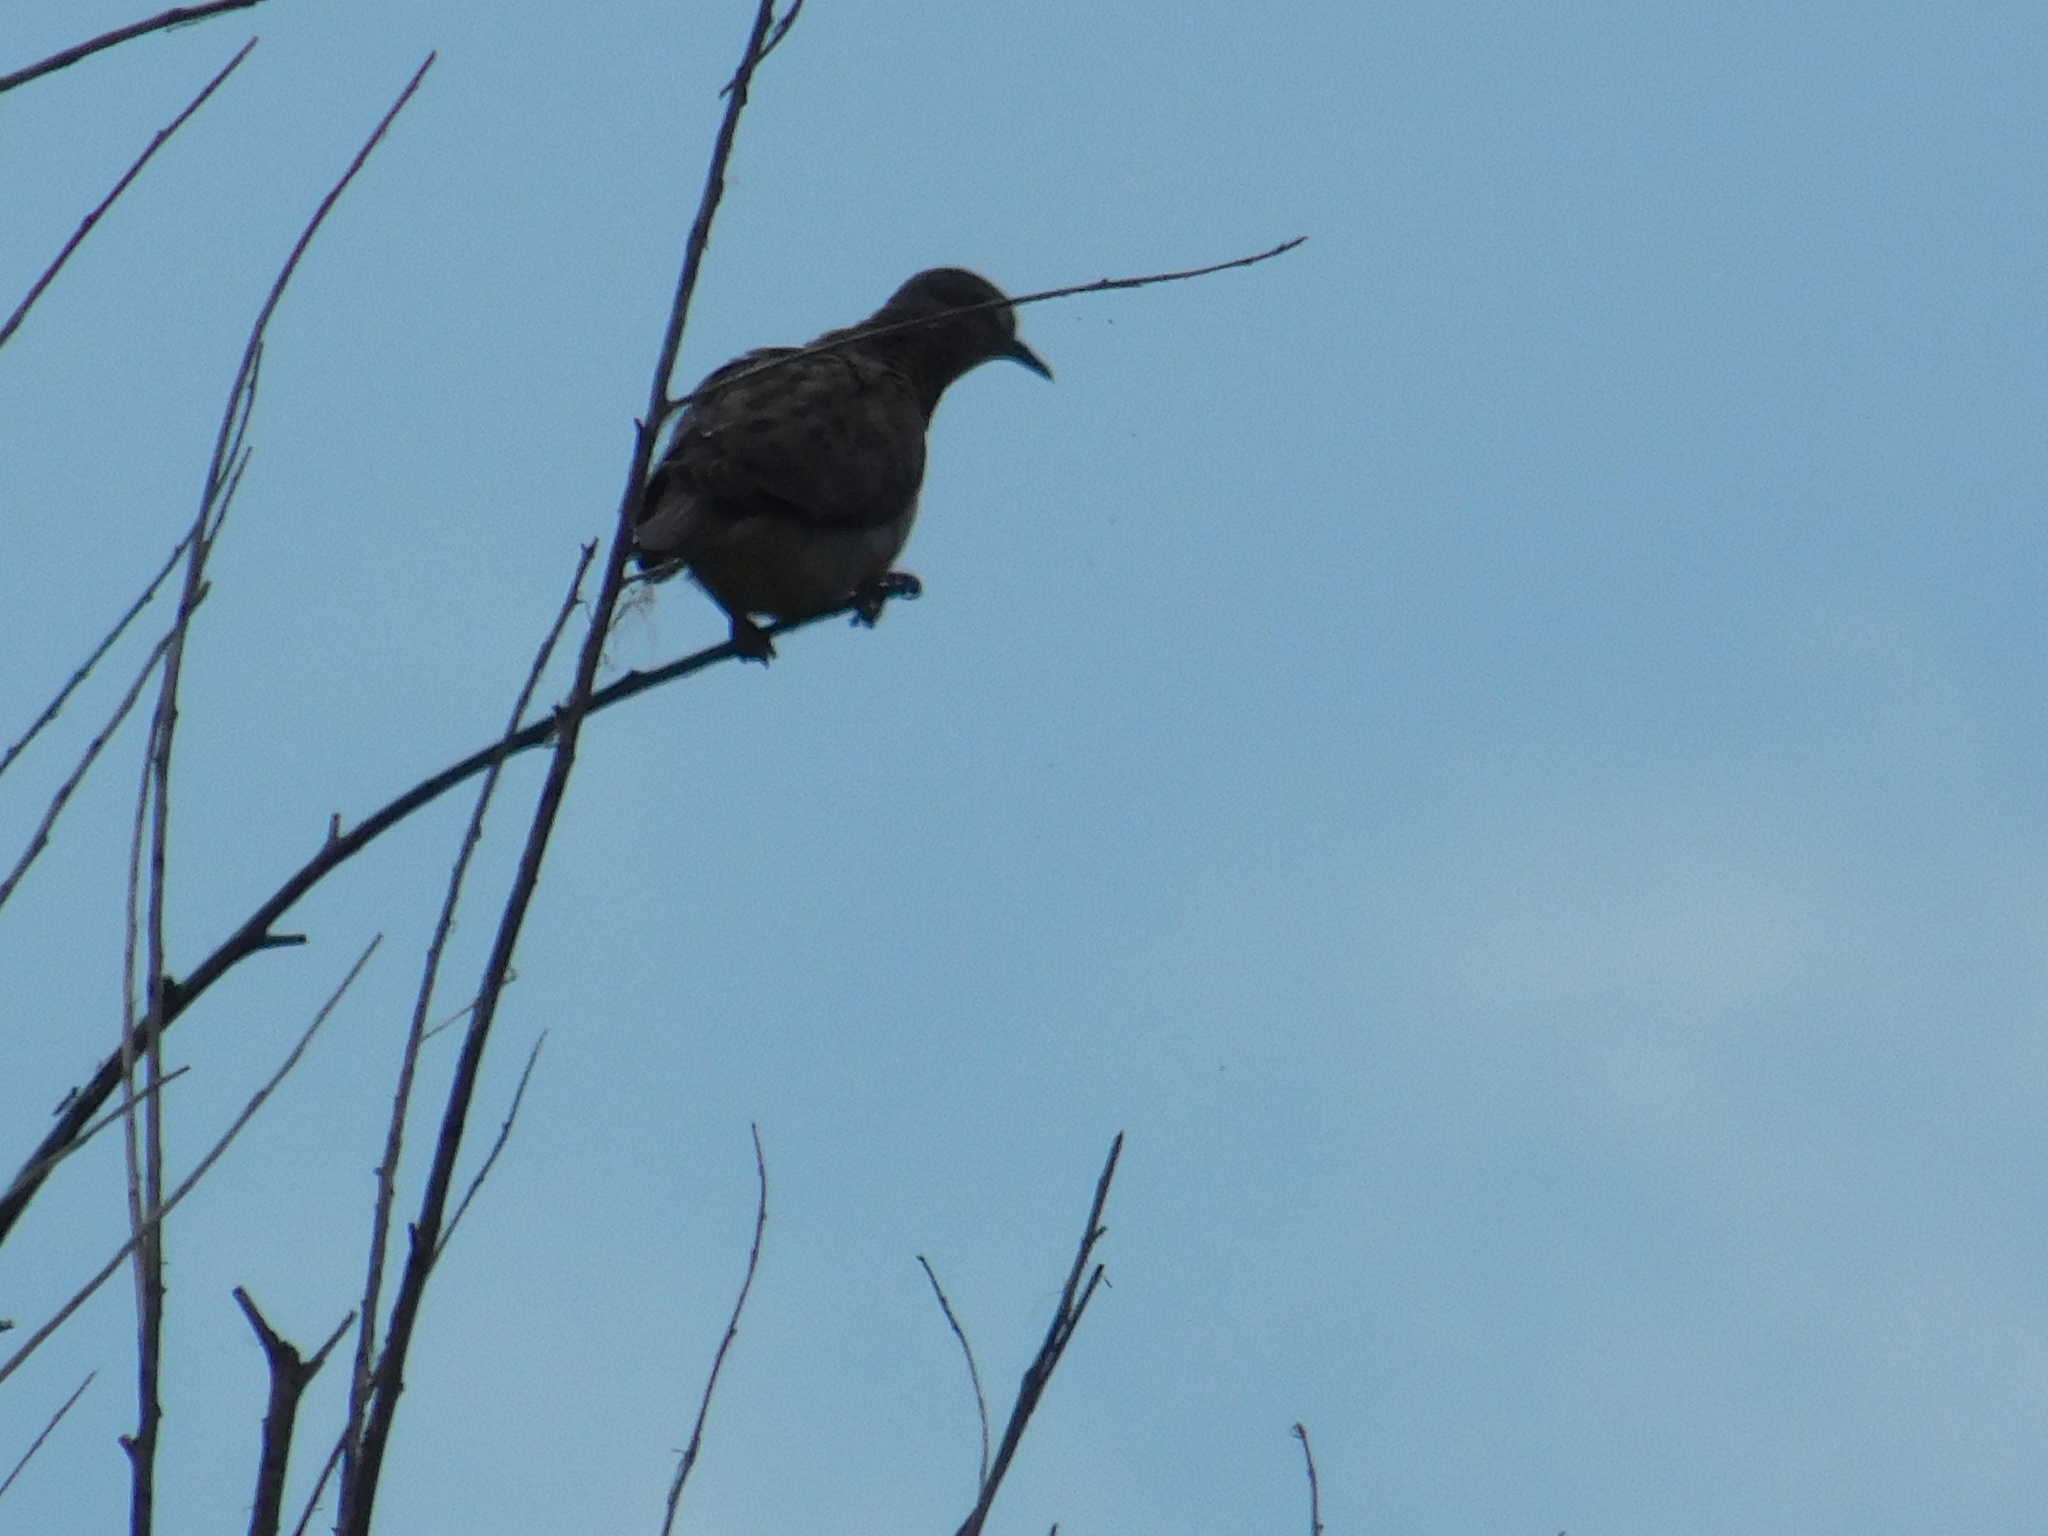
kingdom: Animalia
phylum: Chordata
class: Aves
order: Columbiformes
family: Columbidae
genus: Zenaida
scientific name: Zenaida auriculata
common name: Eared dove
